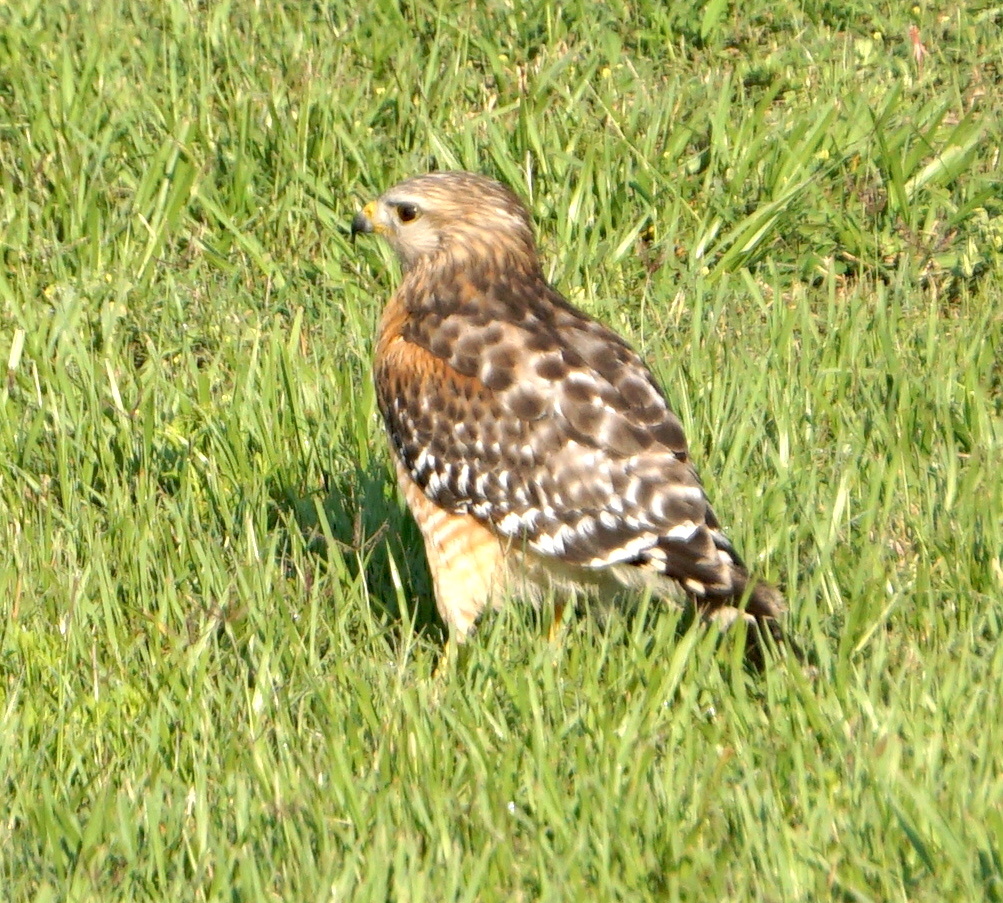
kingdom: Animalia
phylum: Chordata
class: Aves
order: Accipitriformes
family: Accipitridae
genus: Buteo
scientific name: Buteo lineatus
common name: Red-shouldered hawk
